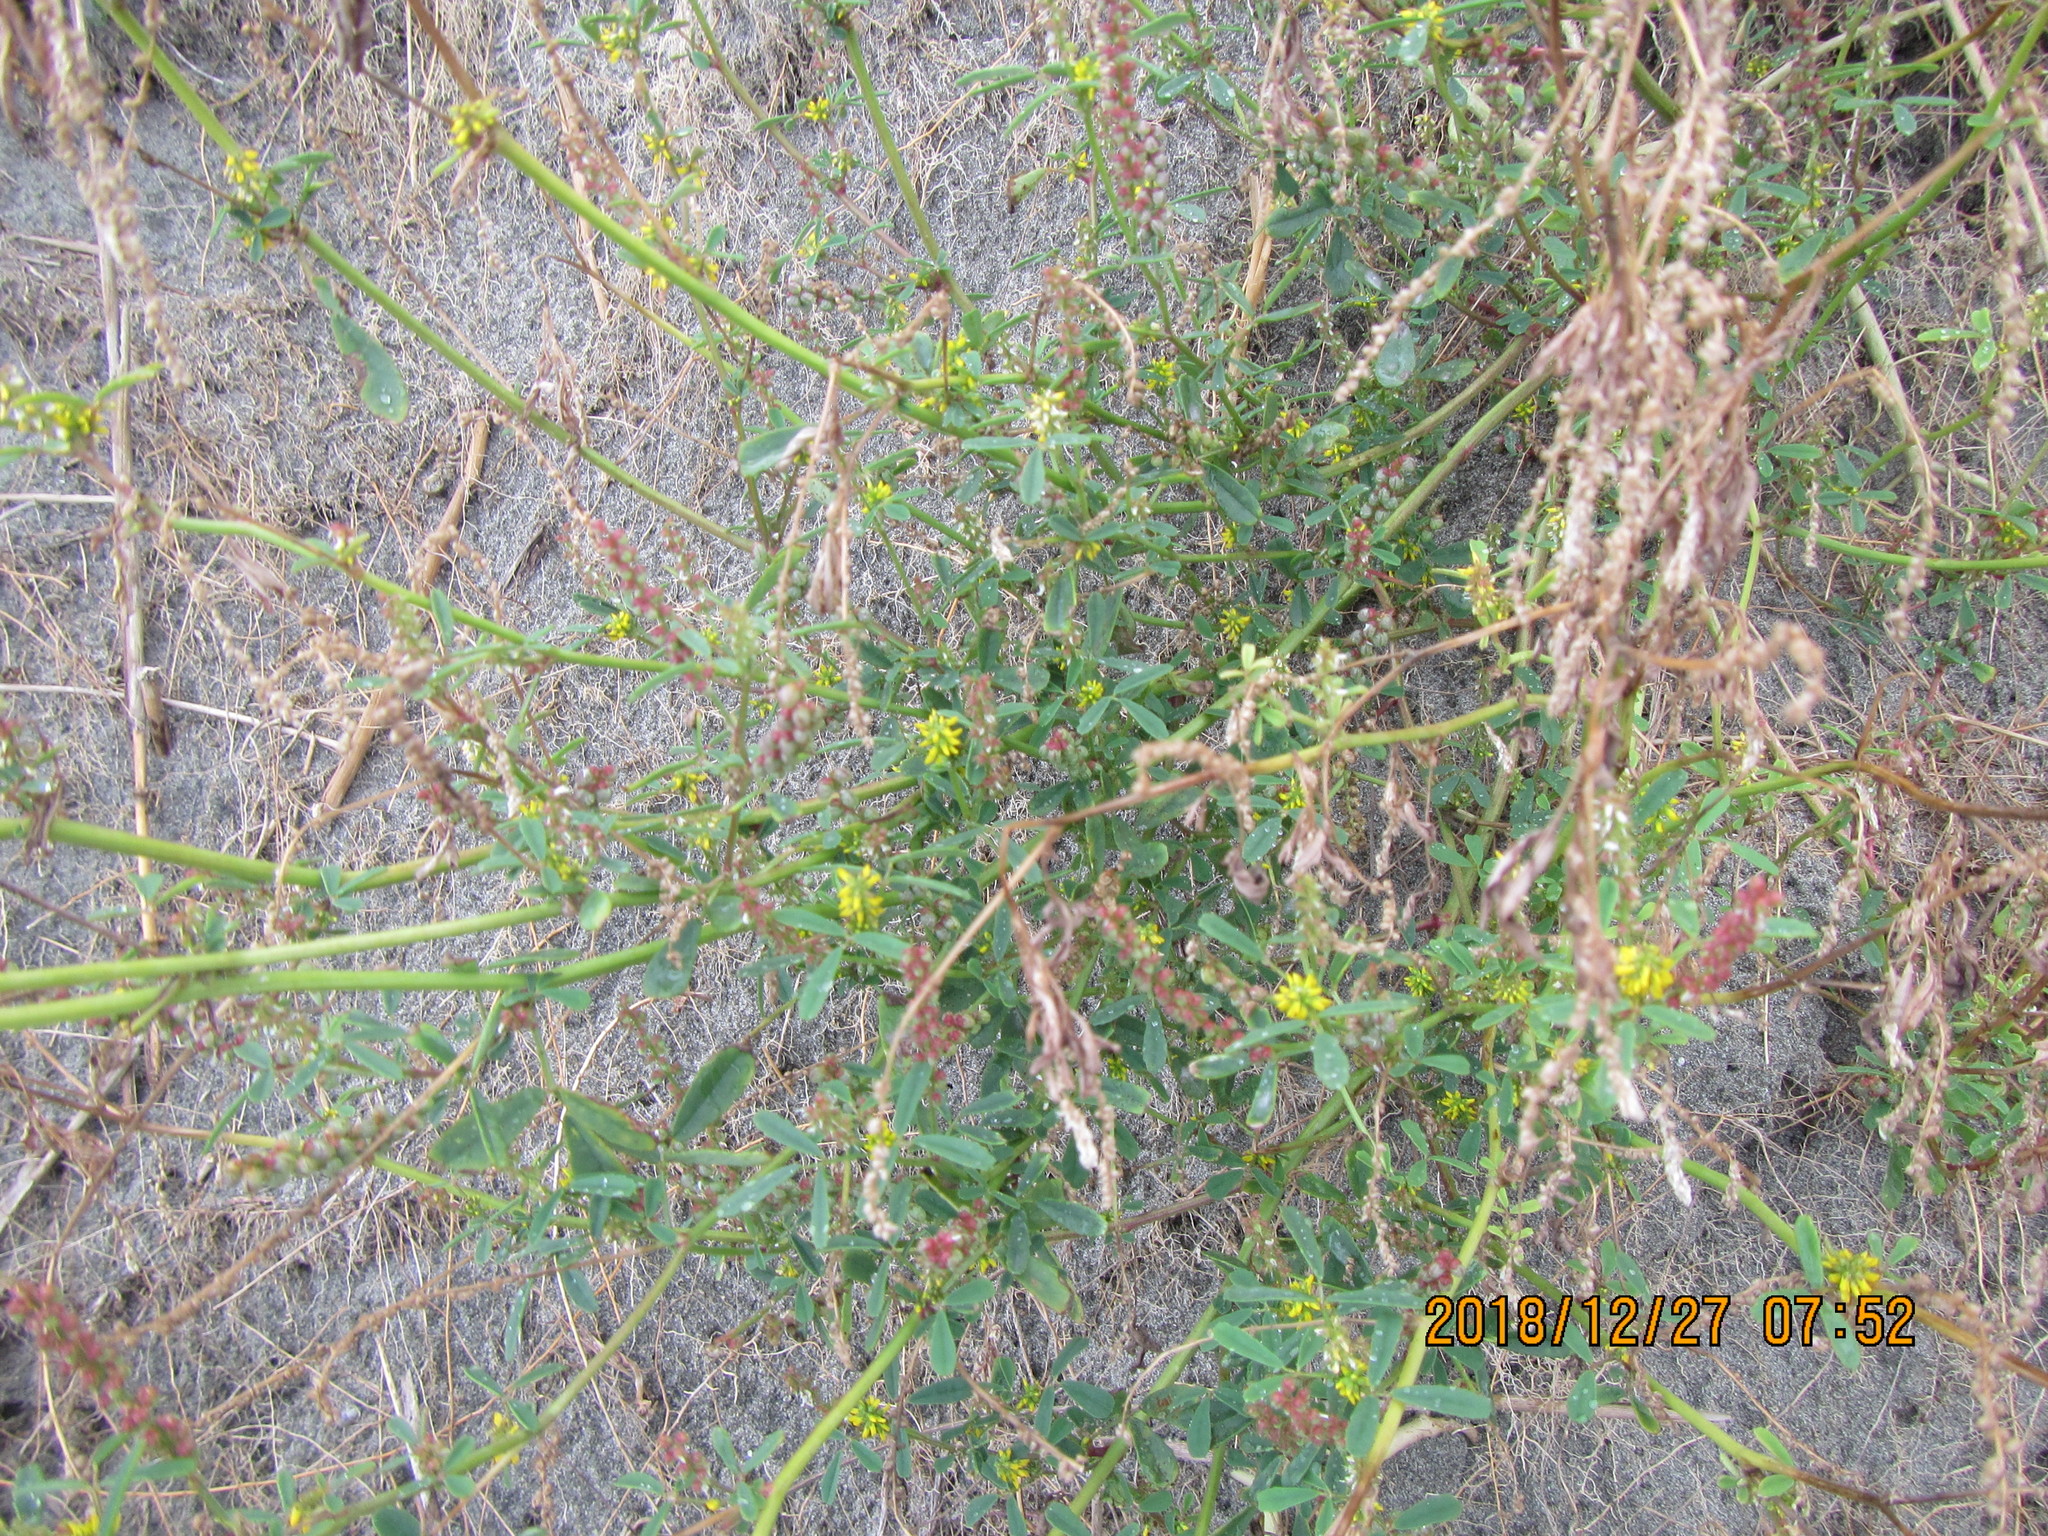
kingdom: Plantae
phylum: Tracheophyta
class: Magnoliopsida
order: Fabales
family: Fabaceae
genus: Melilotus
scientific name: Melilotus indicus
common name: Small melilot
